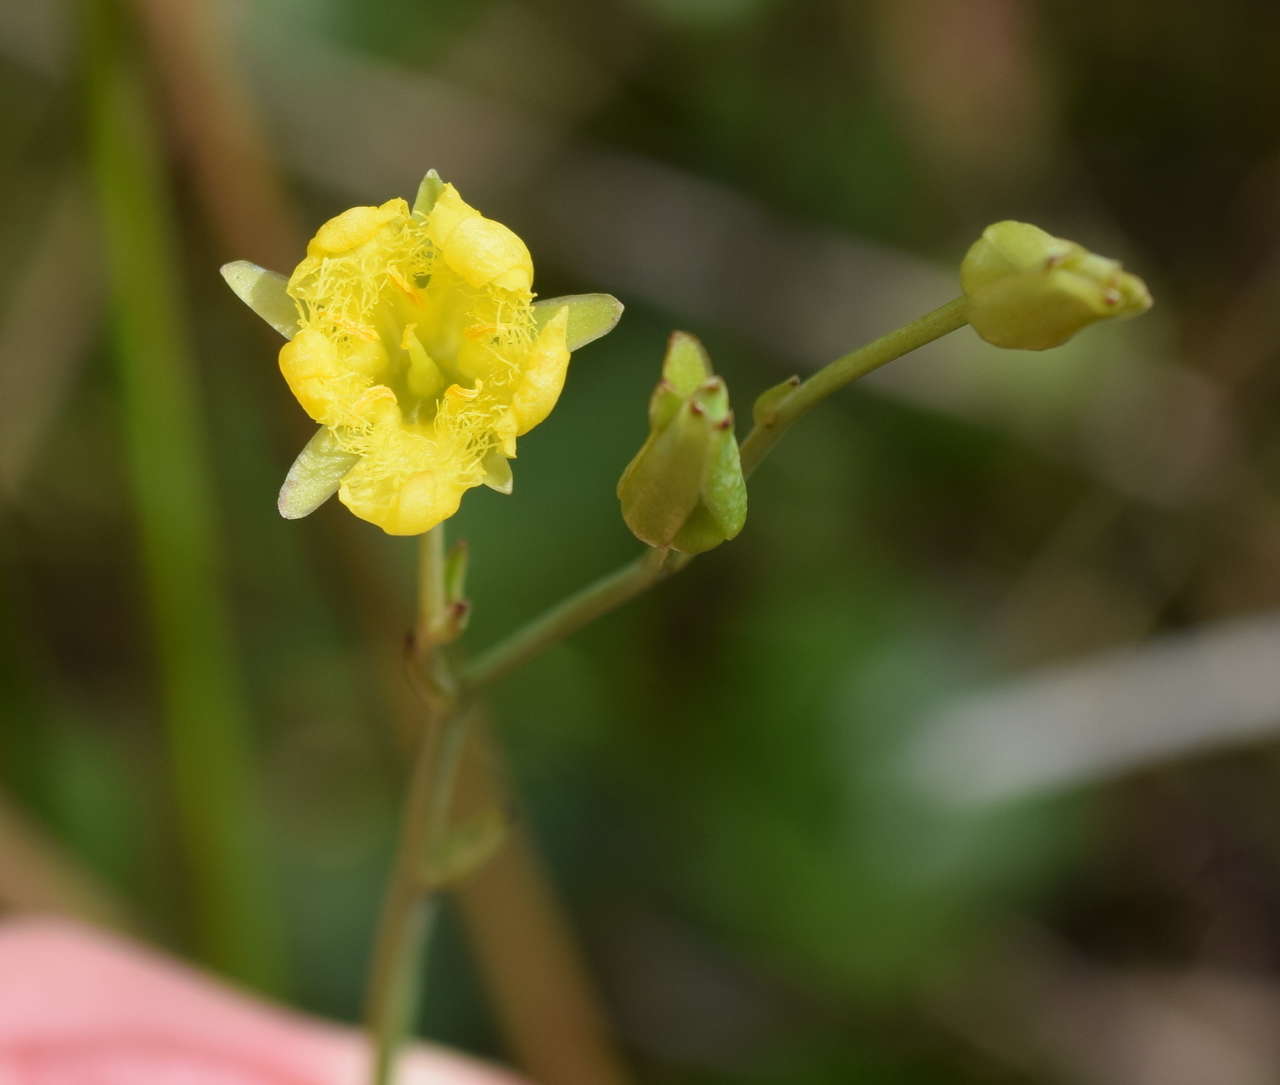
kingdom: Plantae
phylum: Tracheophyta
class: Magnoliopsida
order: Asterales
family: Menyanthaceae
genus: Ornduffia
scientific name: Ornduffia reniformis
